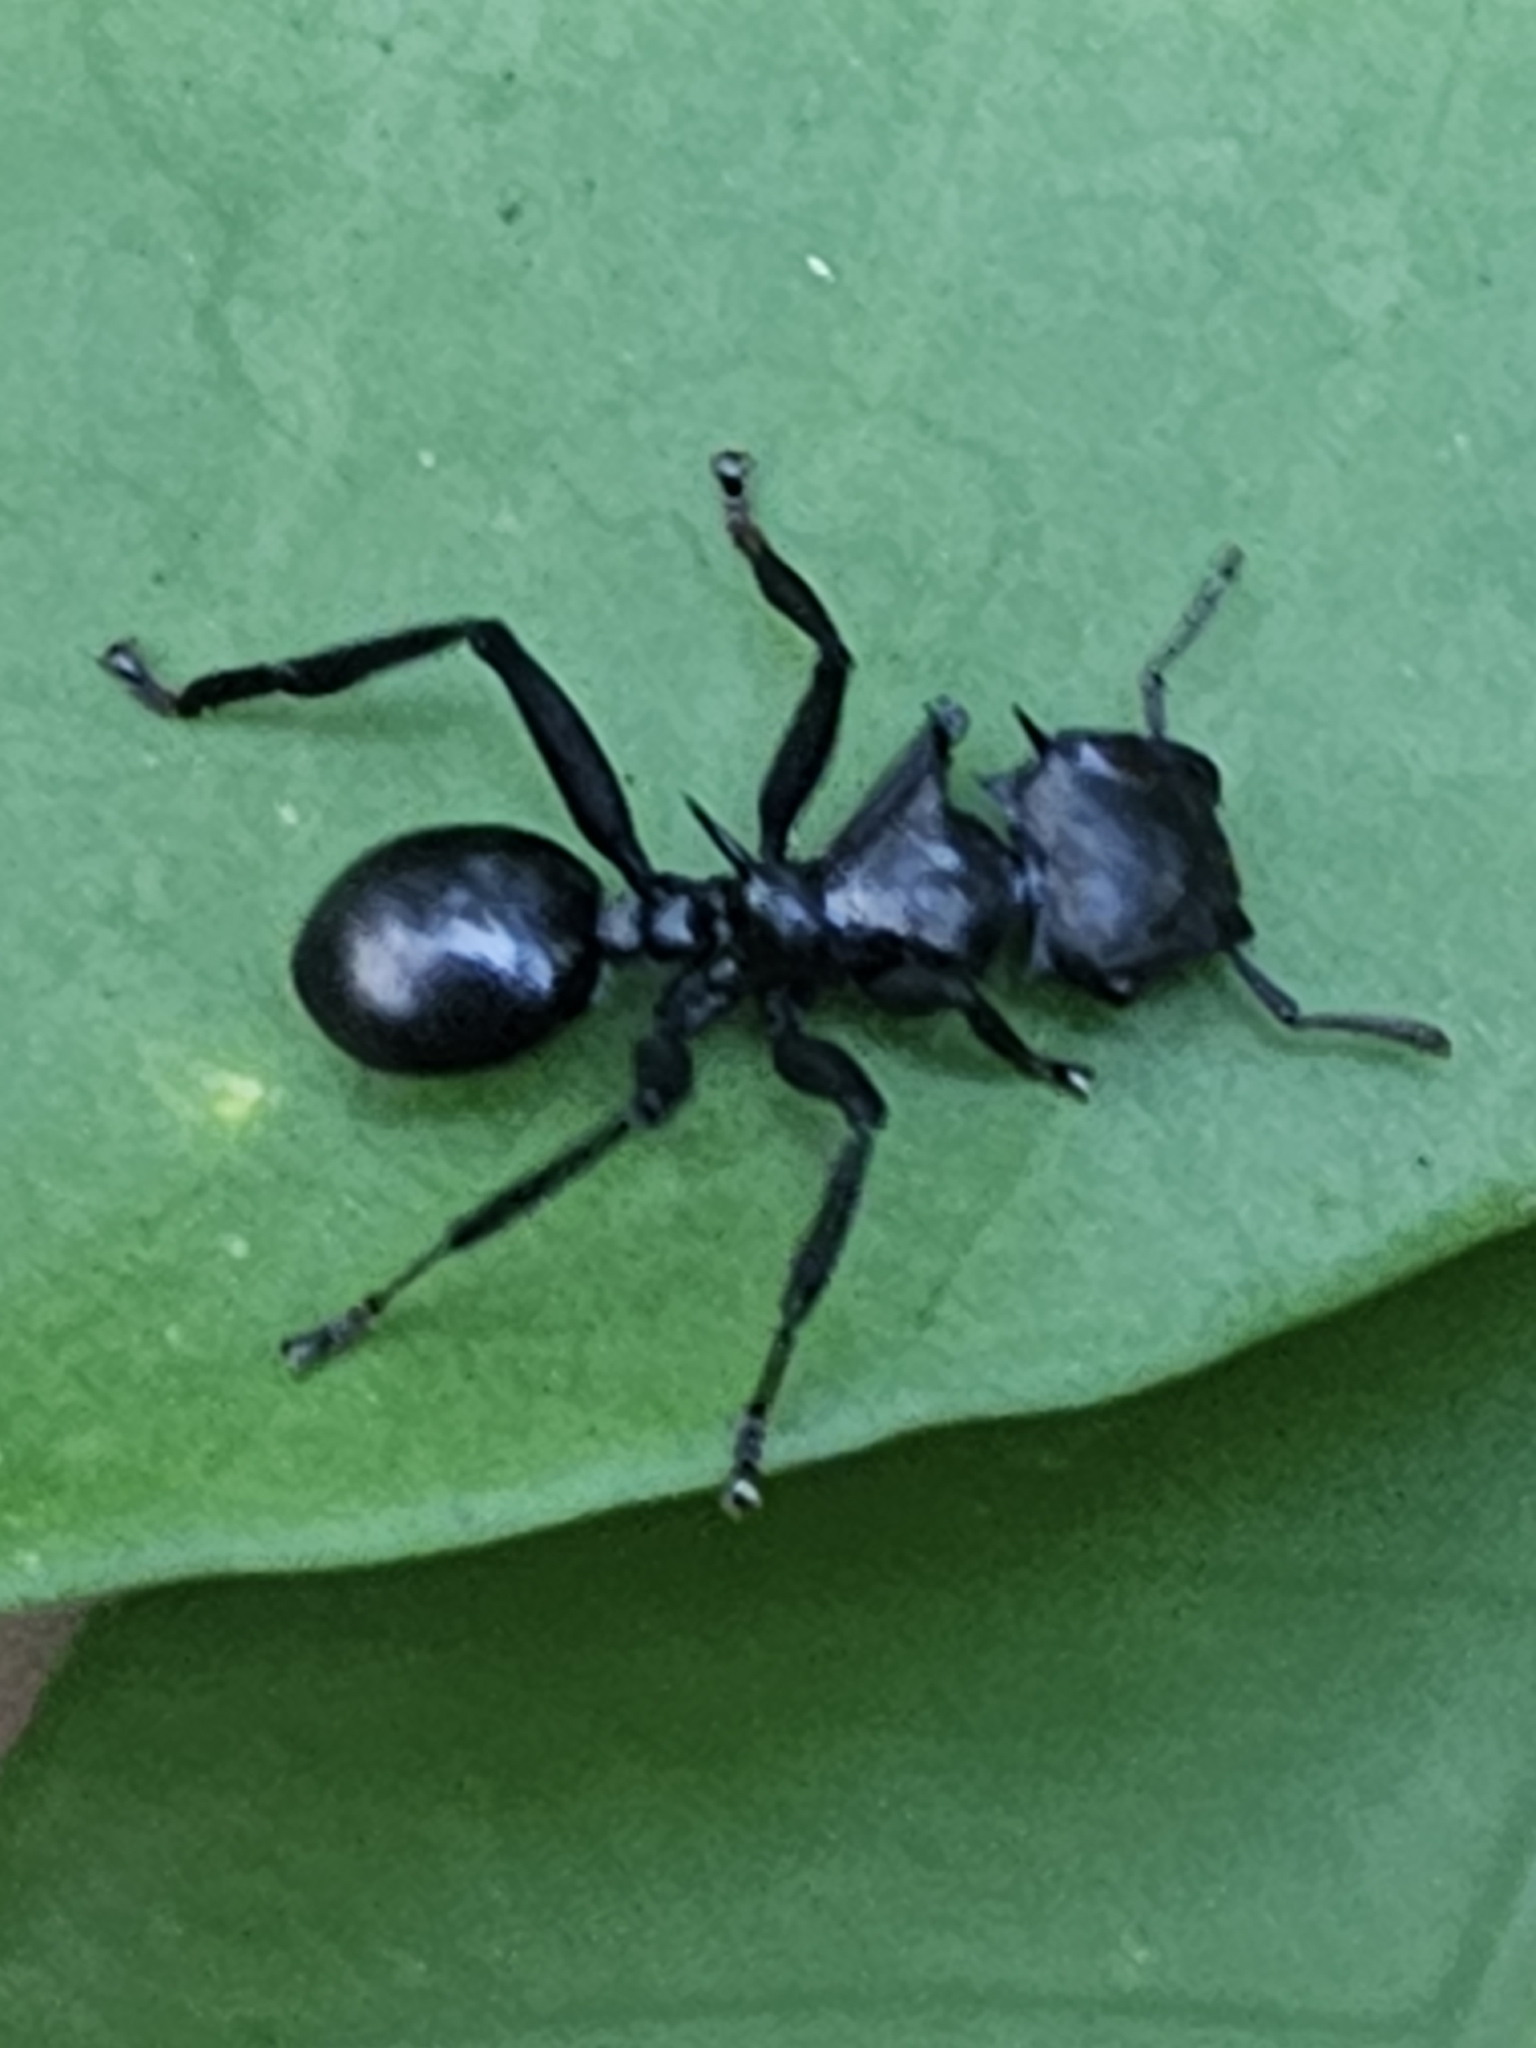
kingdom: Animalia
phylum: Arthropoda
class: Insecta
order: Hymenoptera
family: Formicidae
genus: Cephalotes
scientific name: Cephalotes atratus
